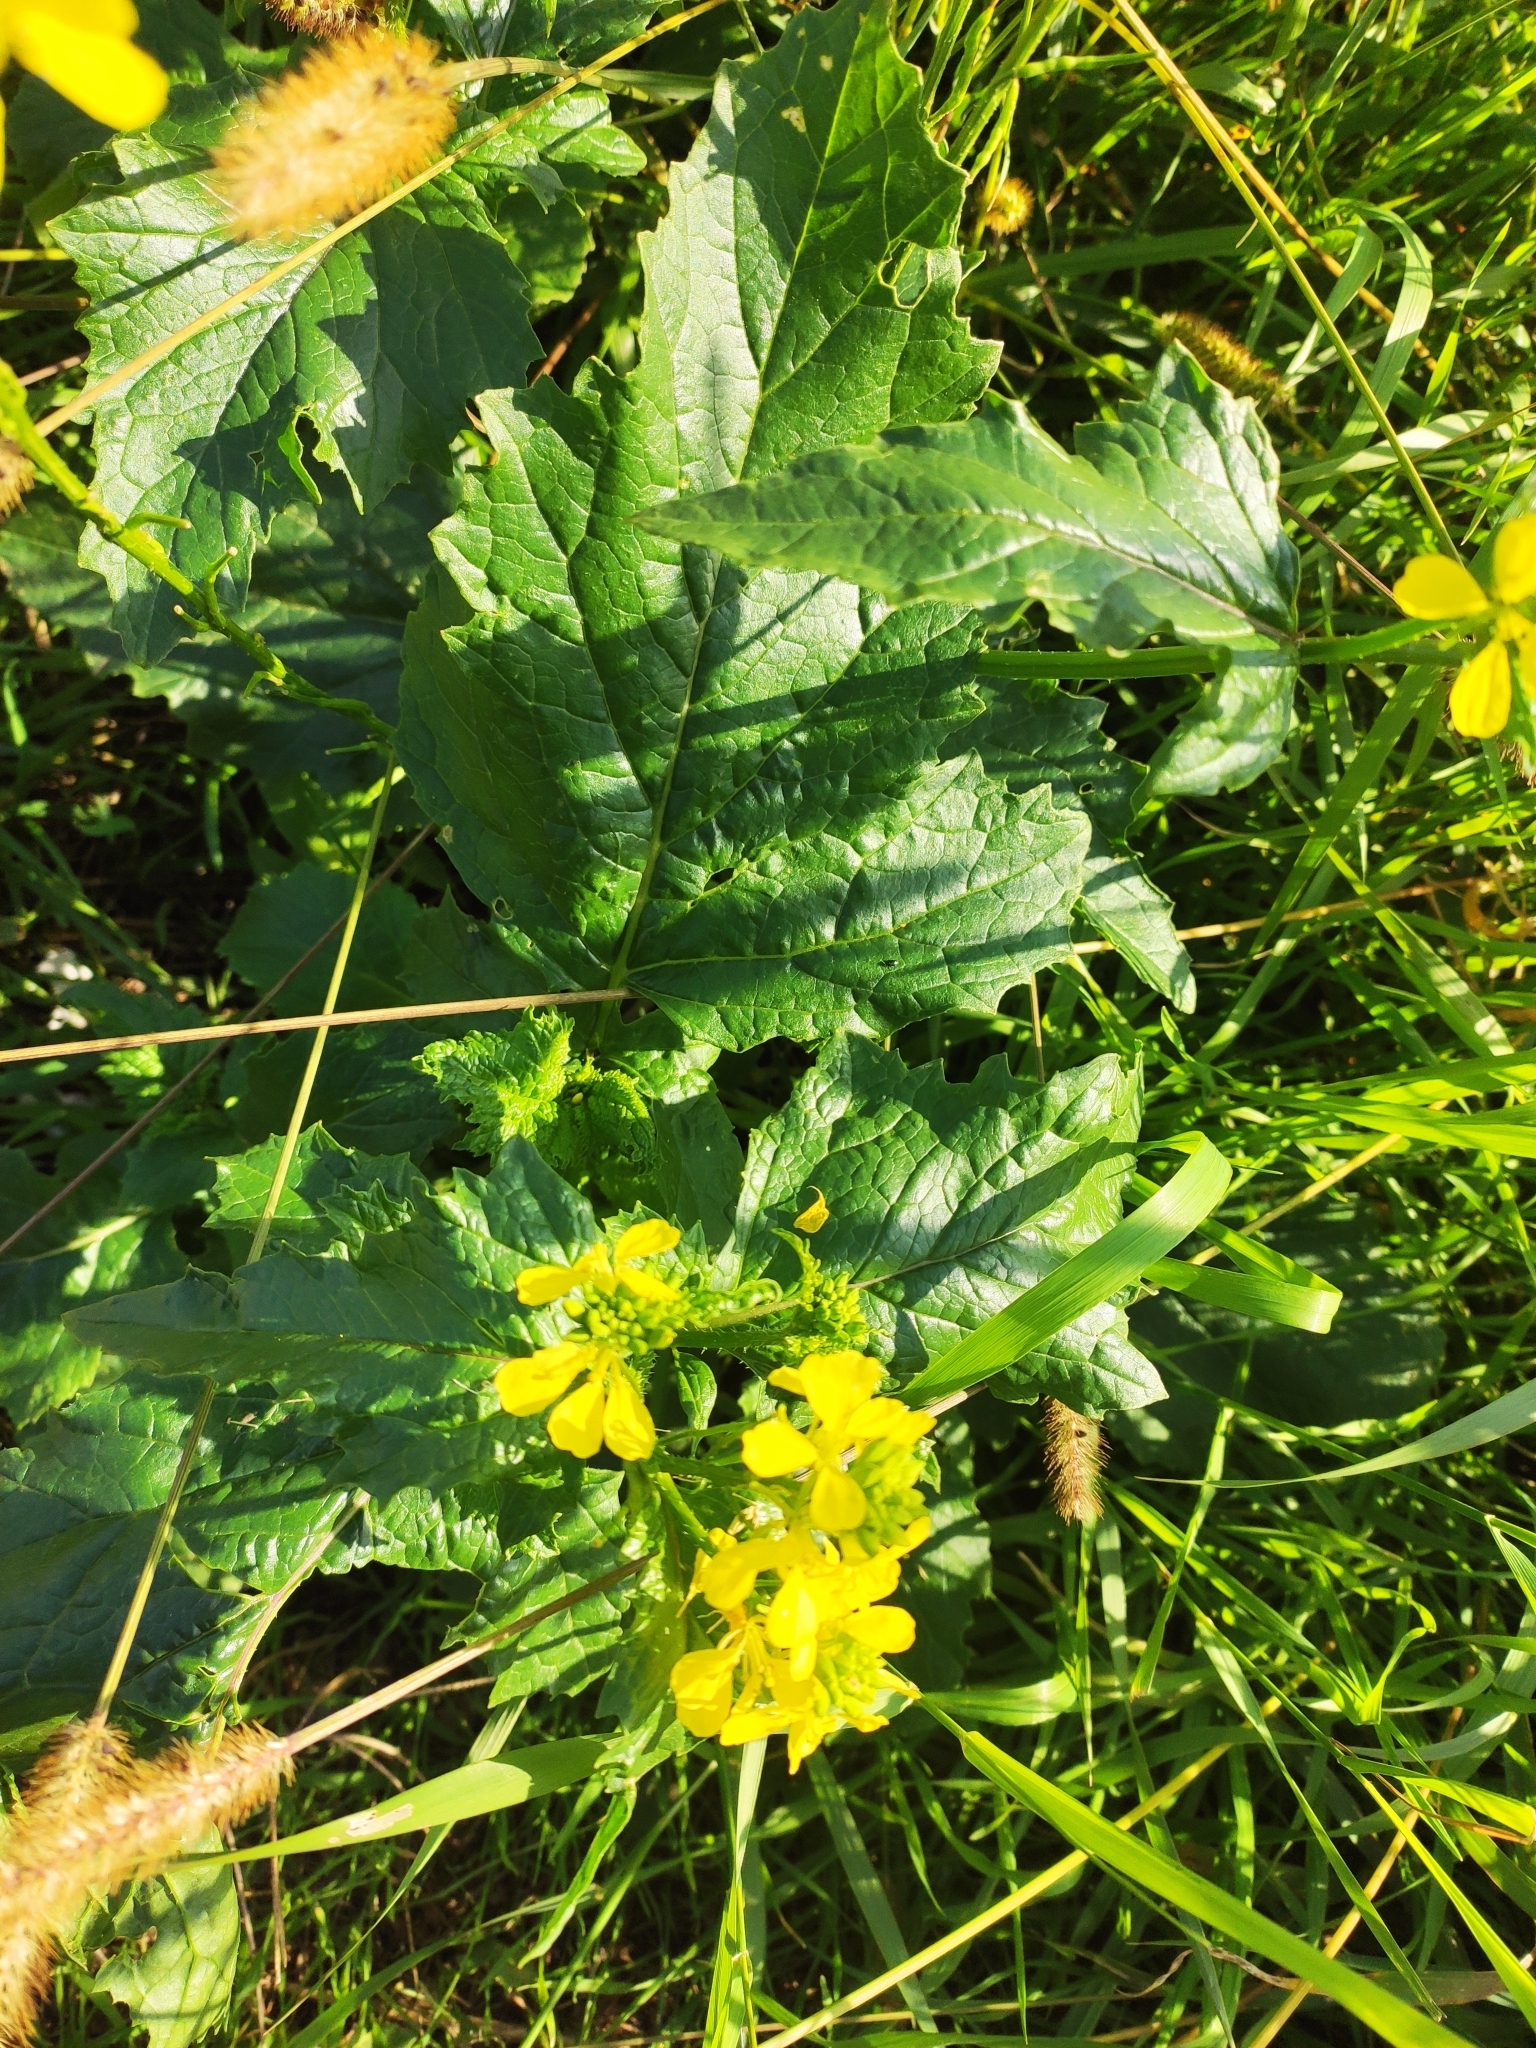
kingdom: Plantae
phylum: Tracheophyta
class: Magnoliopsida
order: Brassicales
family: Brassicaceae
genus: Sinapis
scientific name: Sinapis arvensis
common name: Charlock
